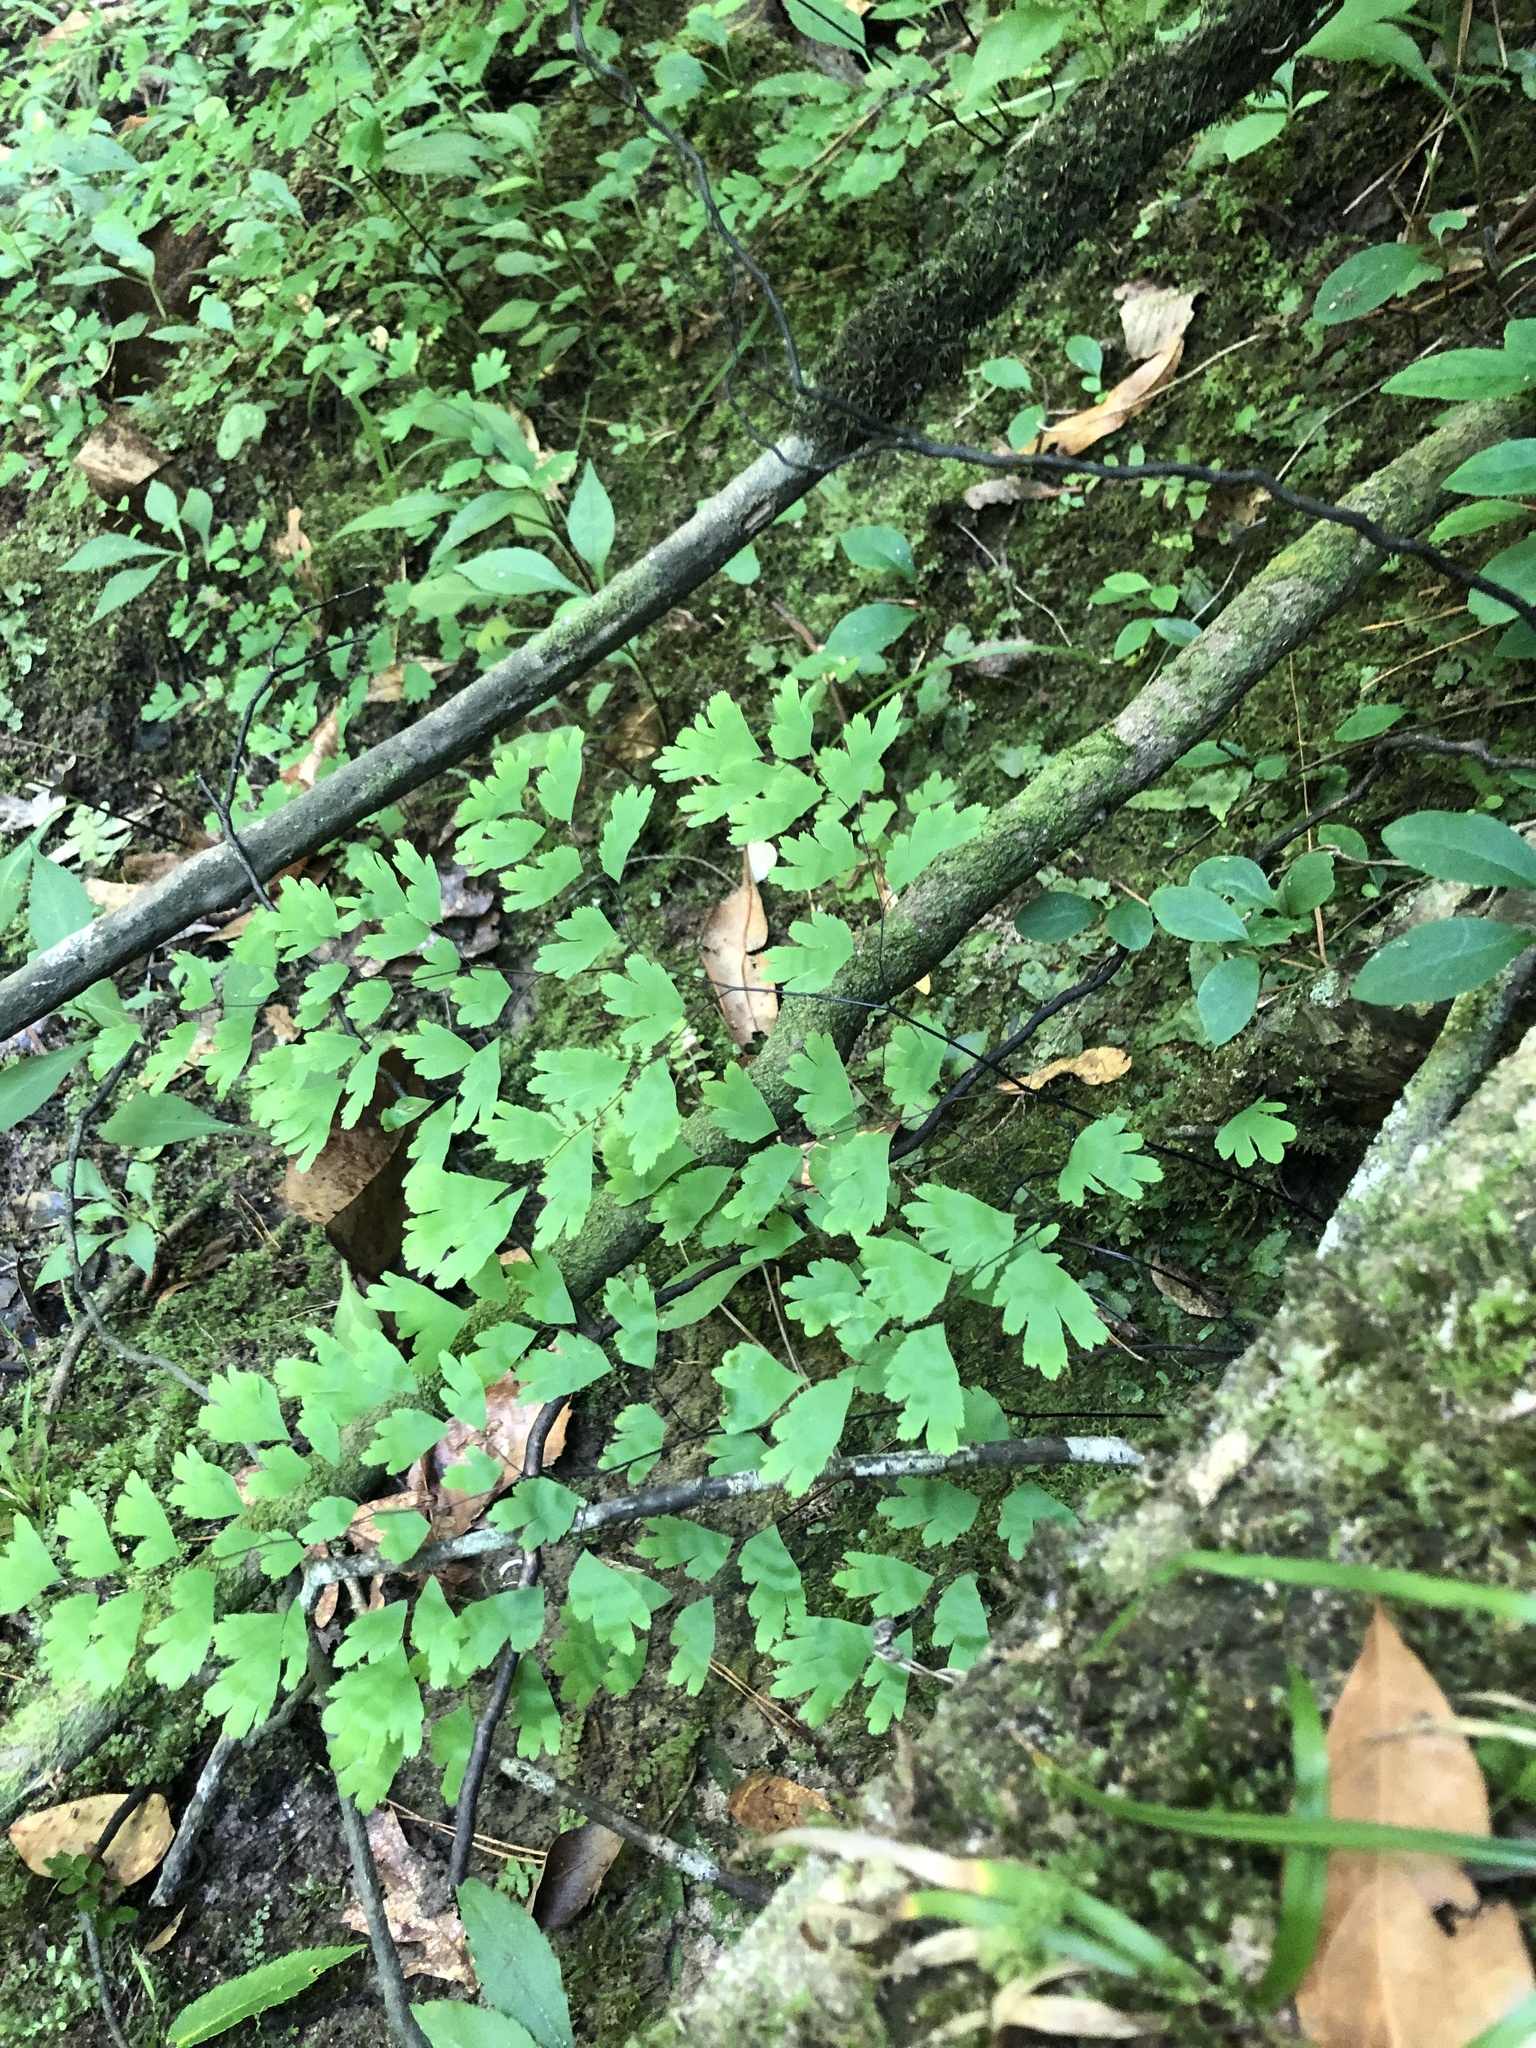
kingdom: Plantae
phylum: Tracheophyta
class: Polypodiopsida
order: Polypodiales
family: Pteridaceae
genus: Adiantum
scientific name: Adiantum capillus-veneris
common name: Maidenhair fern
